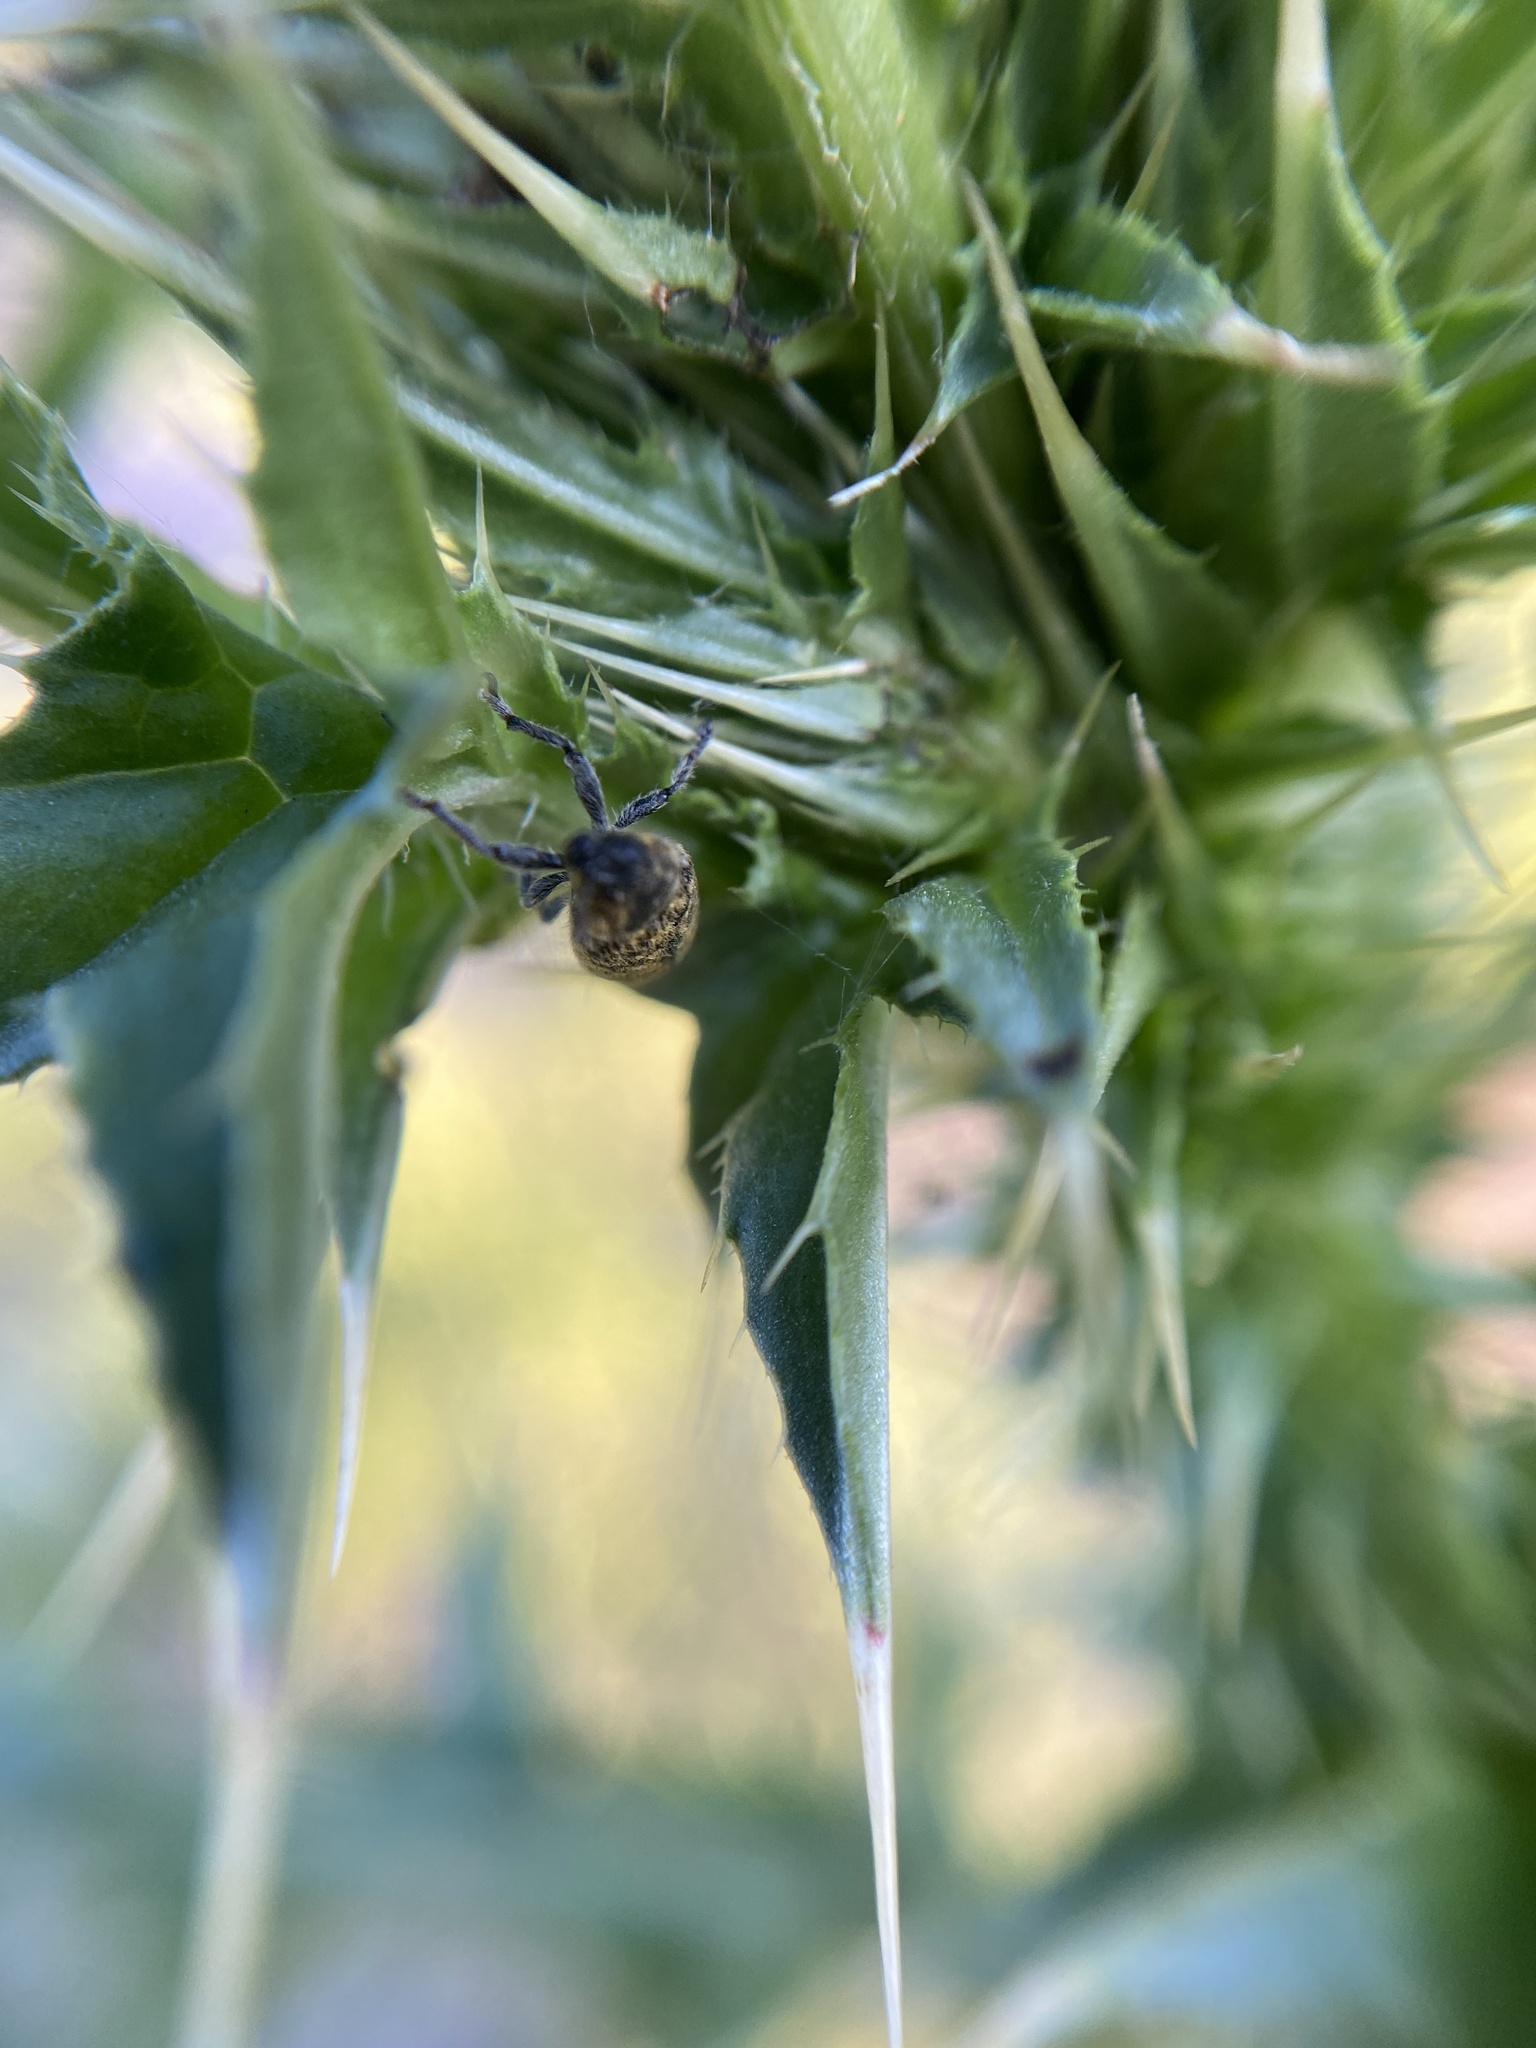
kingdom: Animalia
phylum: Arthropoda
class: Insecta
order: Coleoptera
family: Curculionidae
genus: Rhinocyllus
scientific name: Rhinocyllus conicus
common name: Weevil
